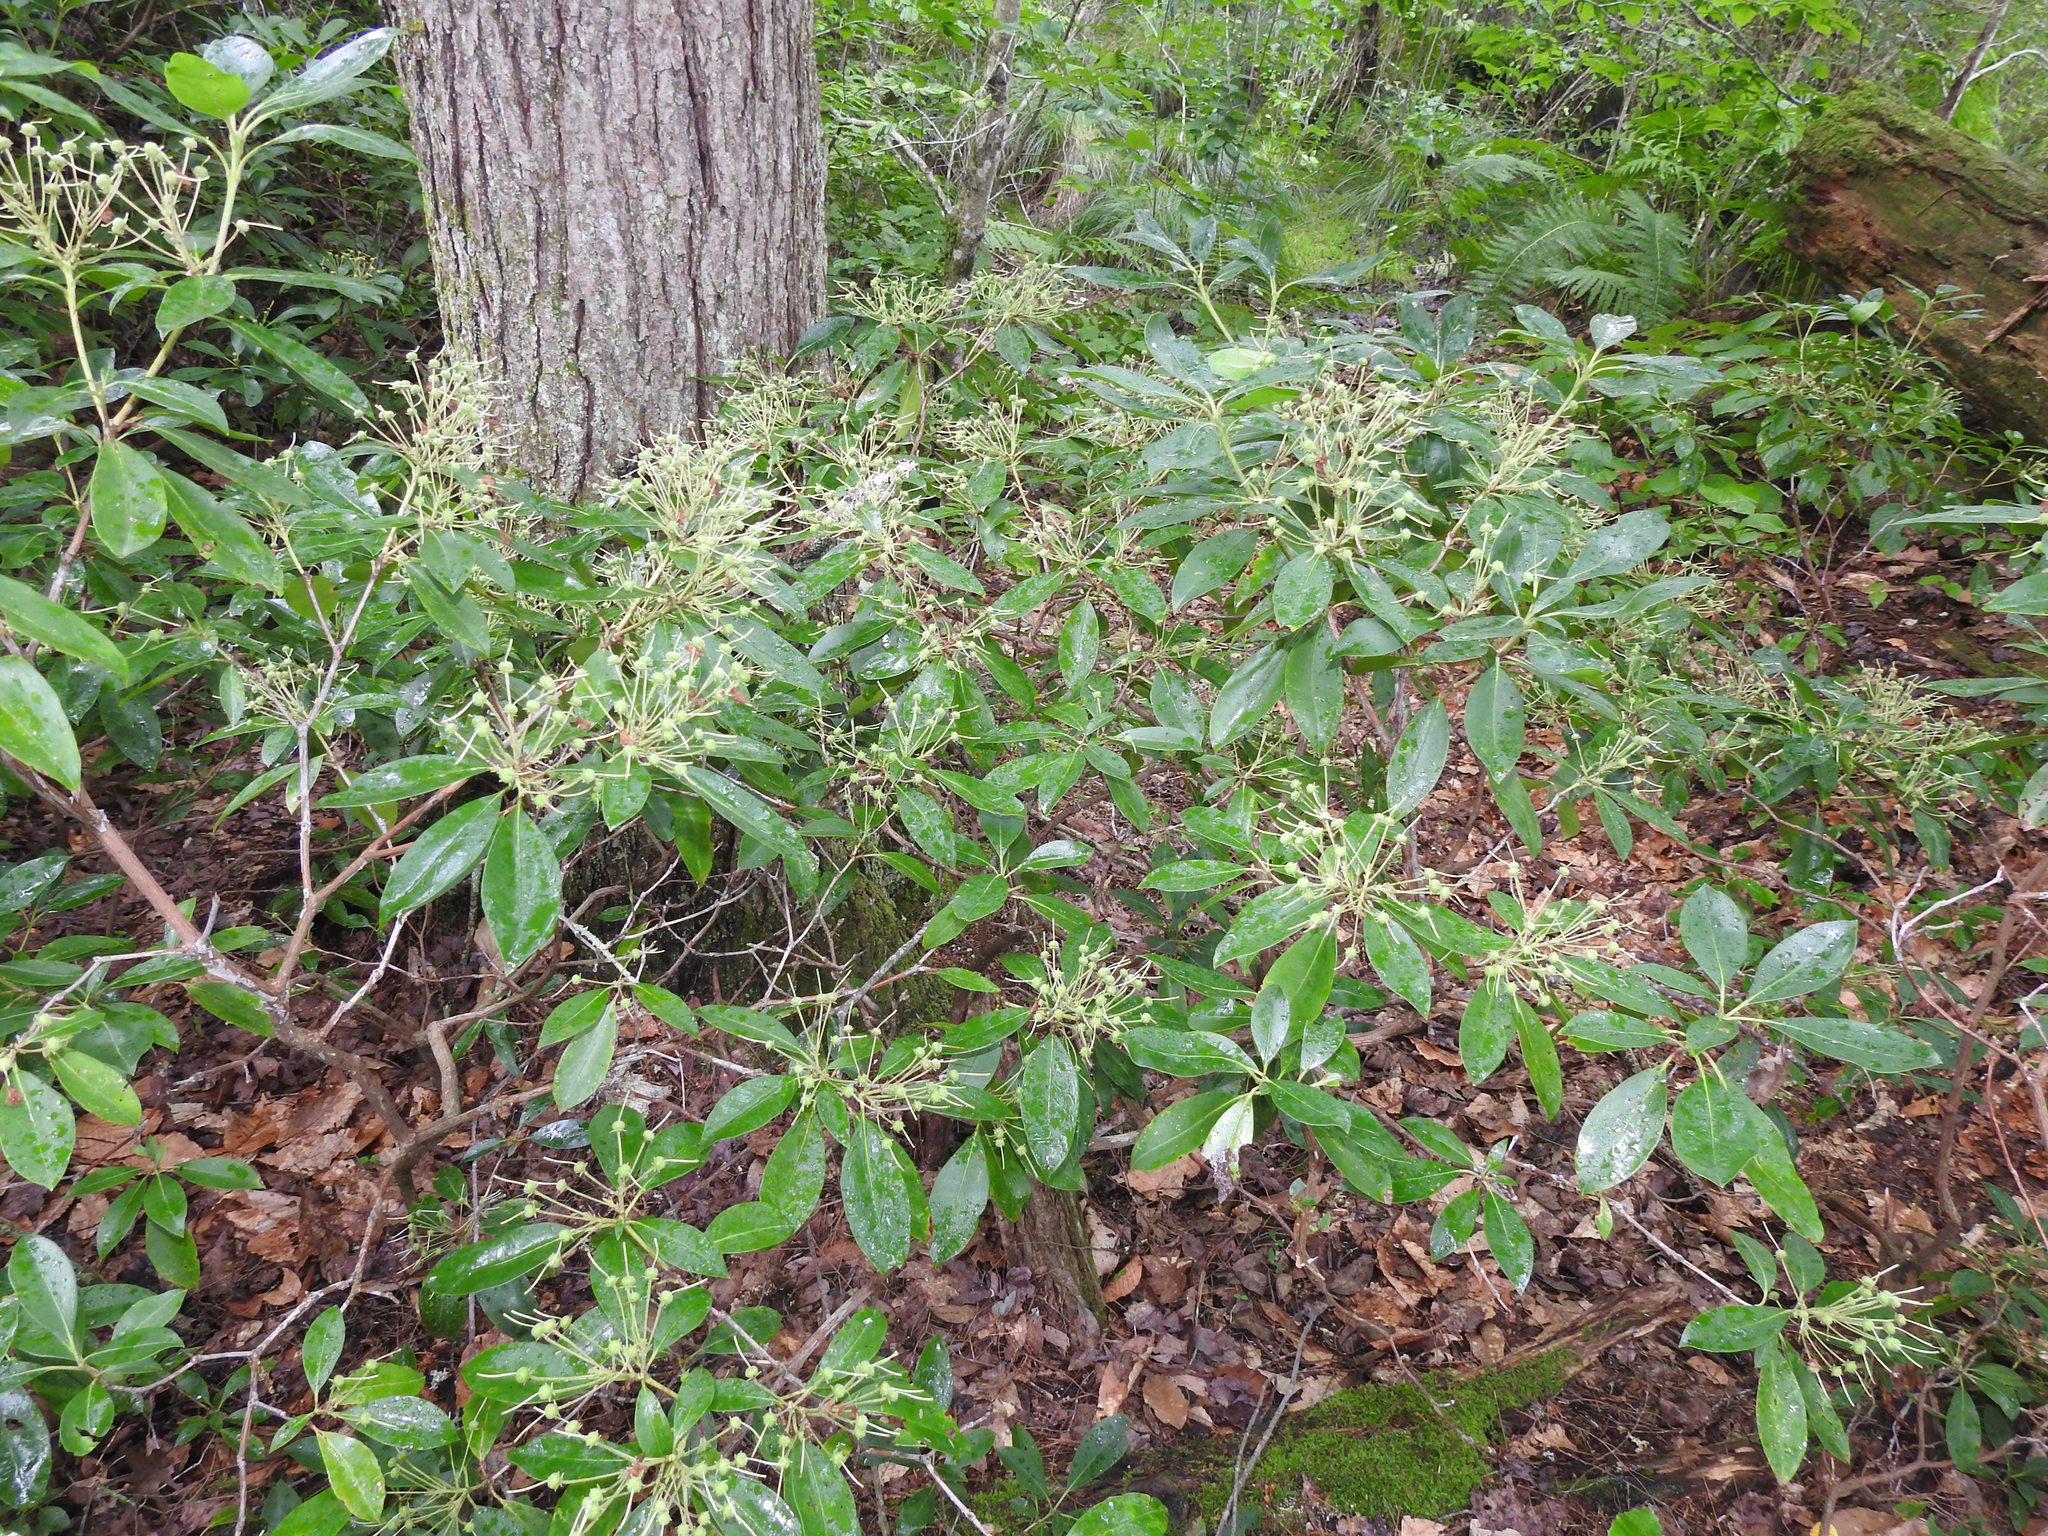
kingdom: Plantae
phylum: Tracheophyta
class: Magnoliopsida
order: Ericales
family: Ericaceae
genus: Kalmia
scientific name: Kalmia latifolia
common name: Mountain-laurel
